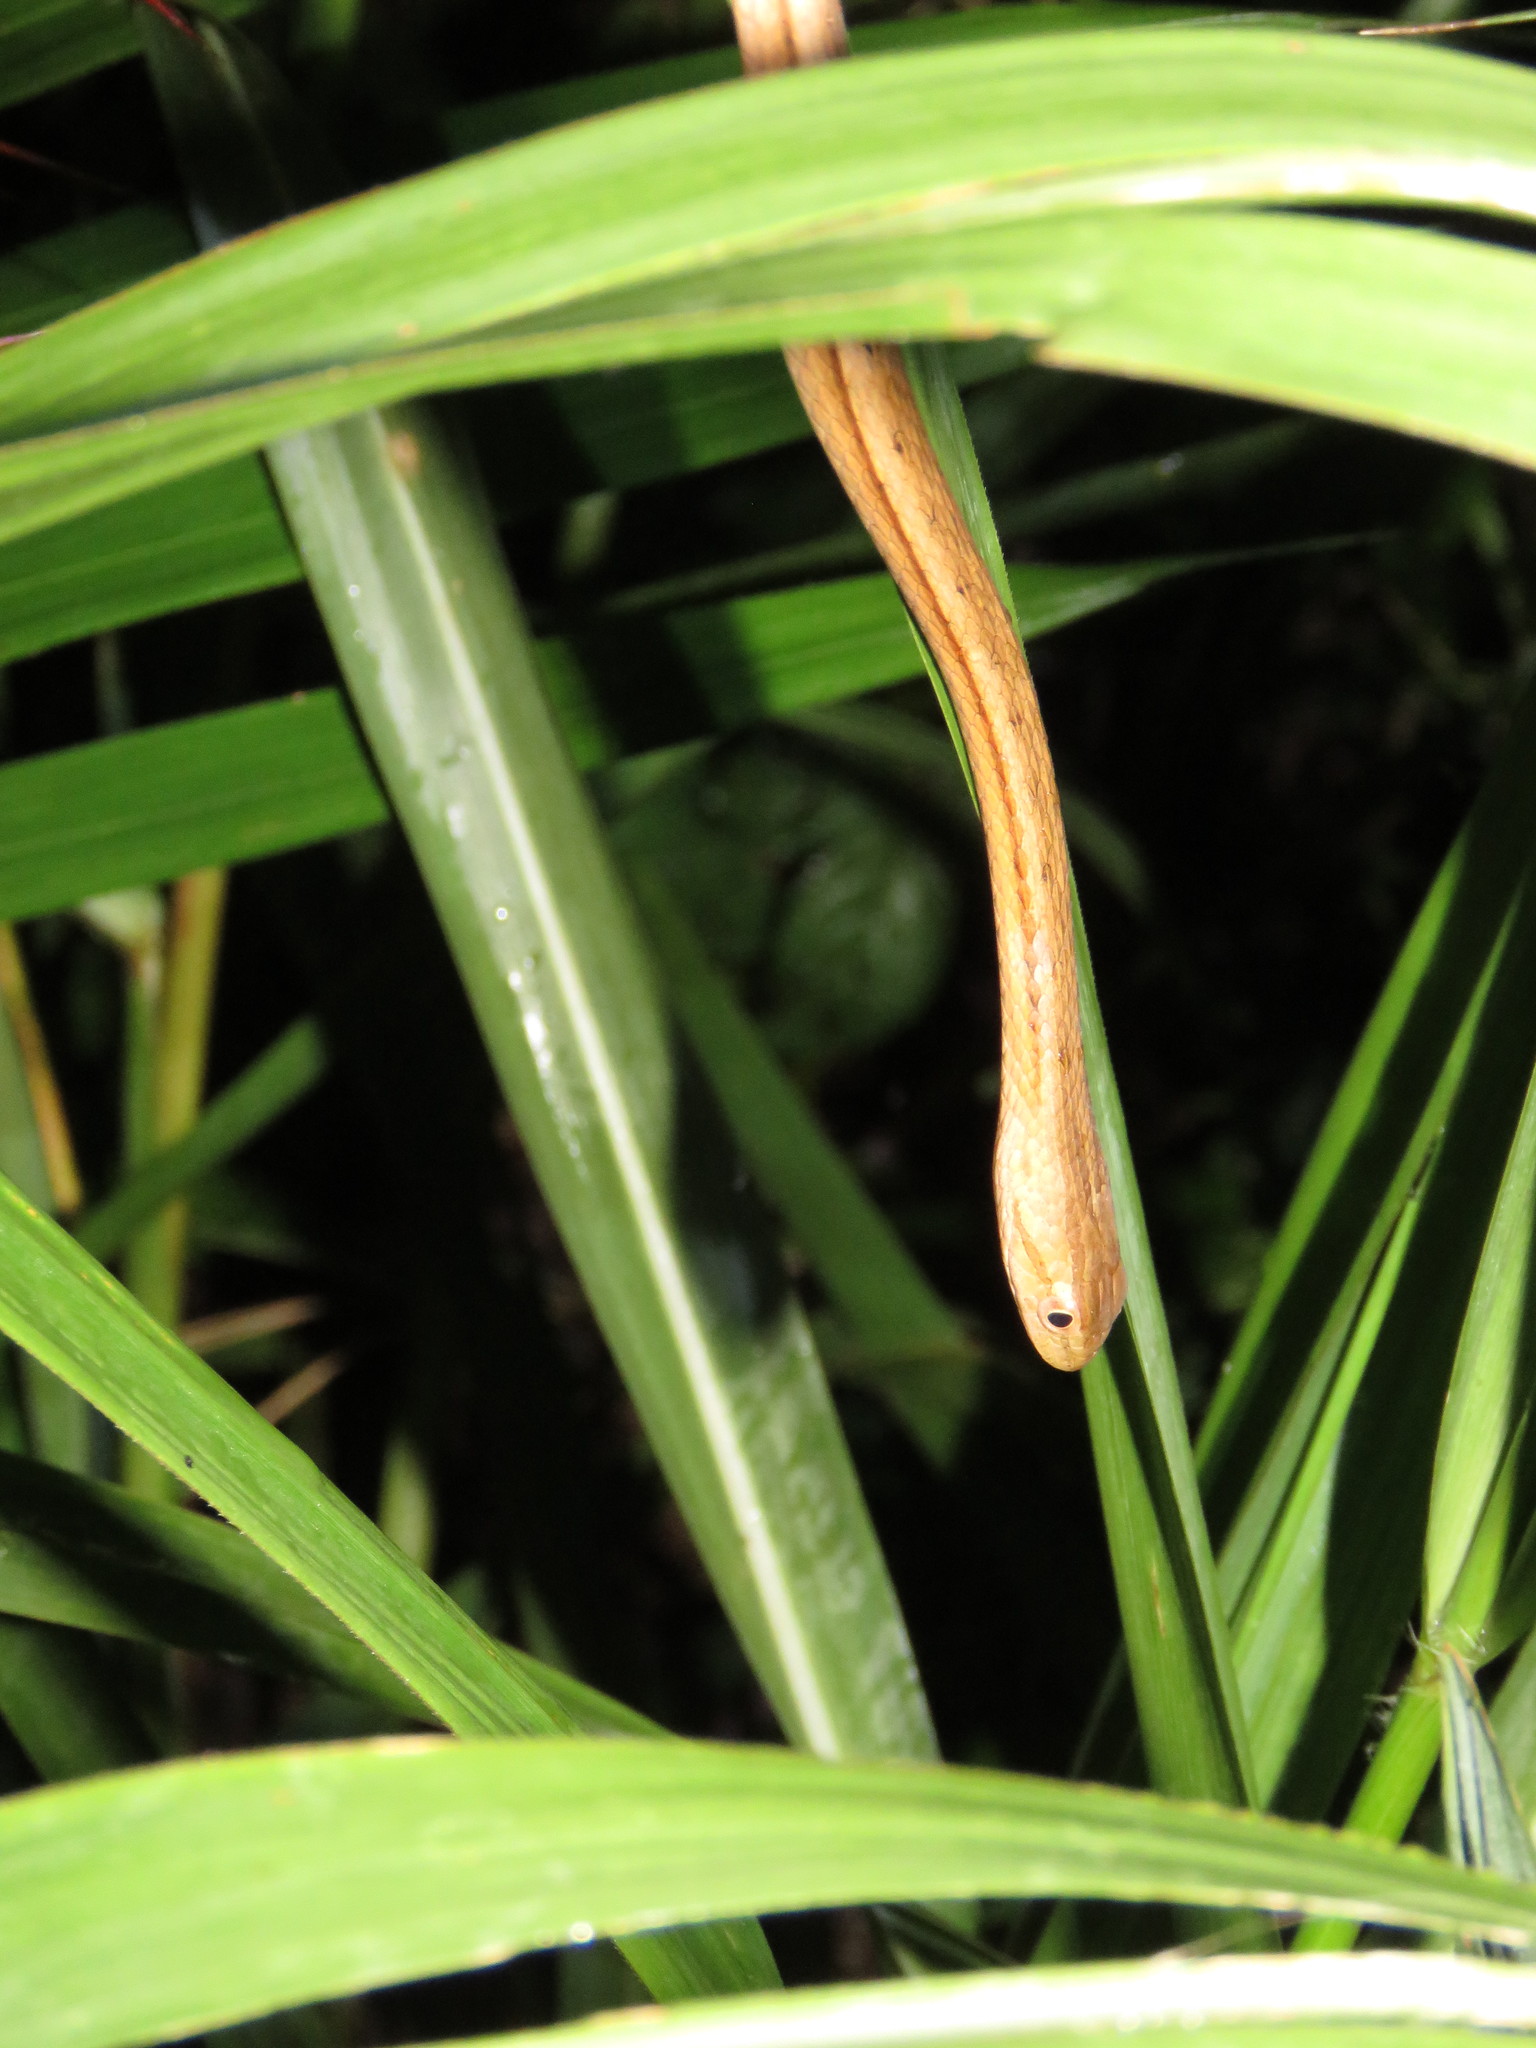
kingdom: Animalia
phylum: Chordata
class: Squamata
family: Colubridae
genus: Thamnodynastes
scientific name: Thamnodynastes pallidus
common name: Amazon coastal house snake
